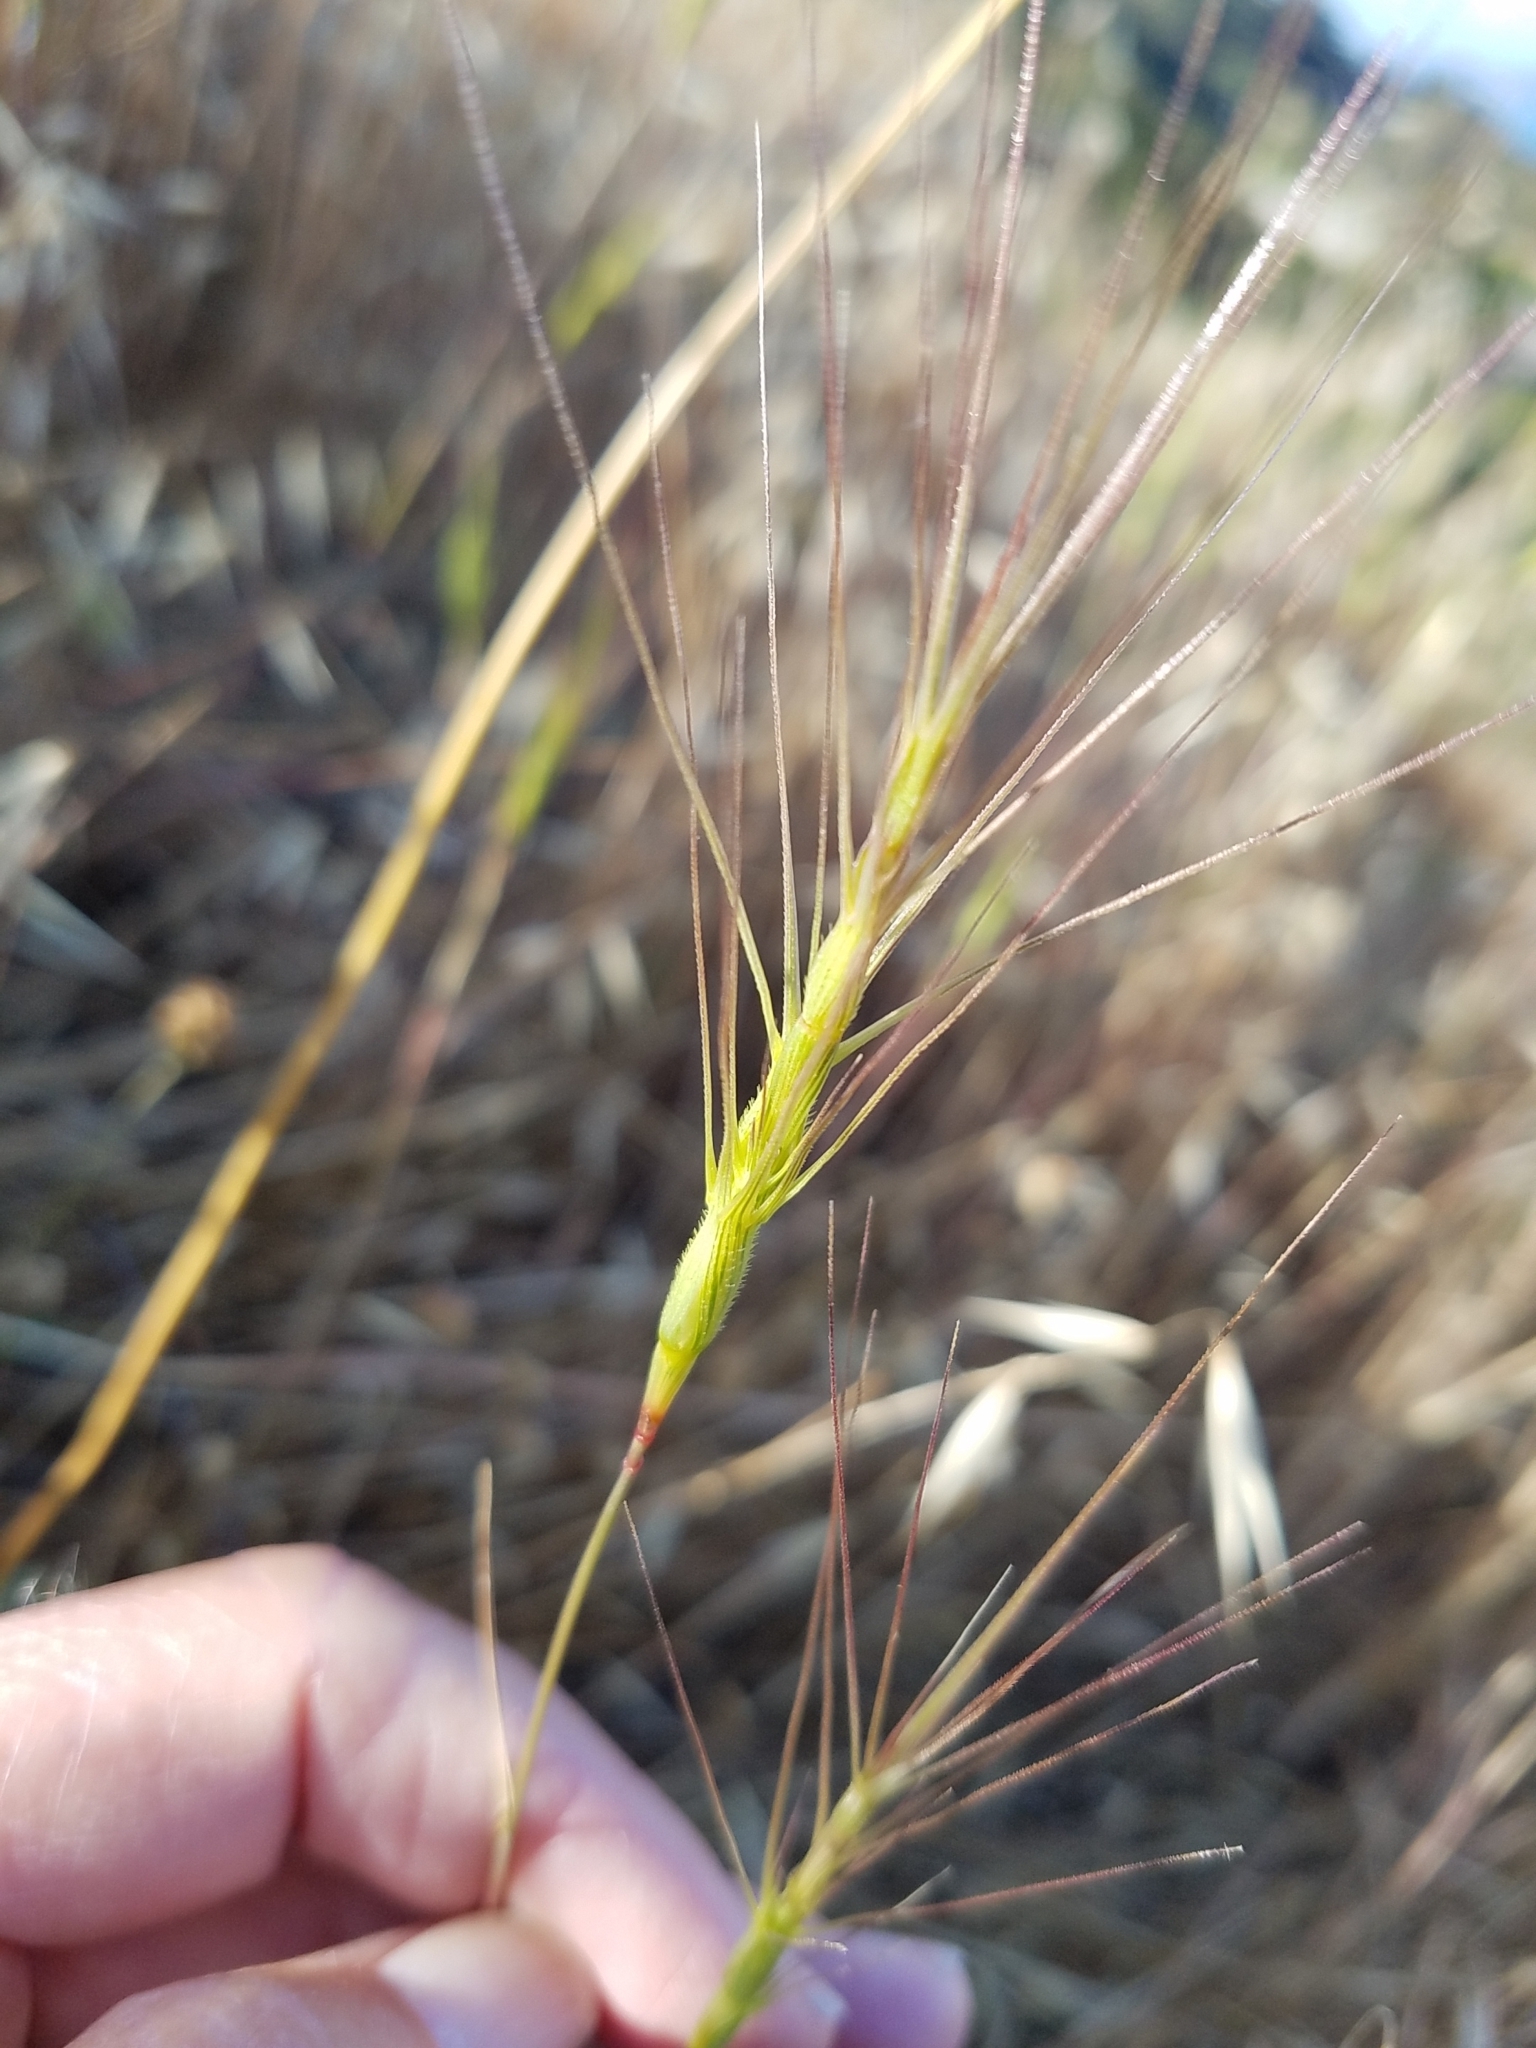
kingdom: Plantae
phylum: Tracheophyta
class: Liliopsida
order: Poales
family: Poaceae
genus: Aegilops
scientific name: Aegilops triuncialis
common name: Barb goat grass
